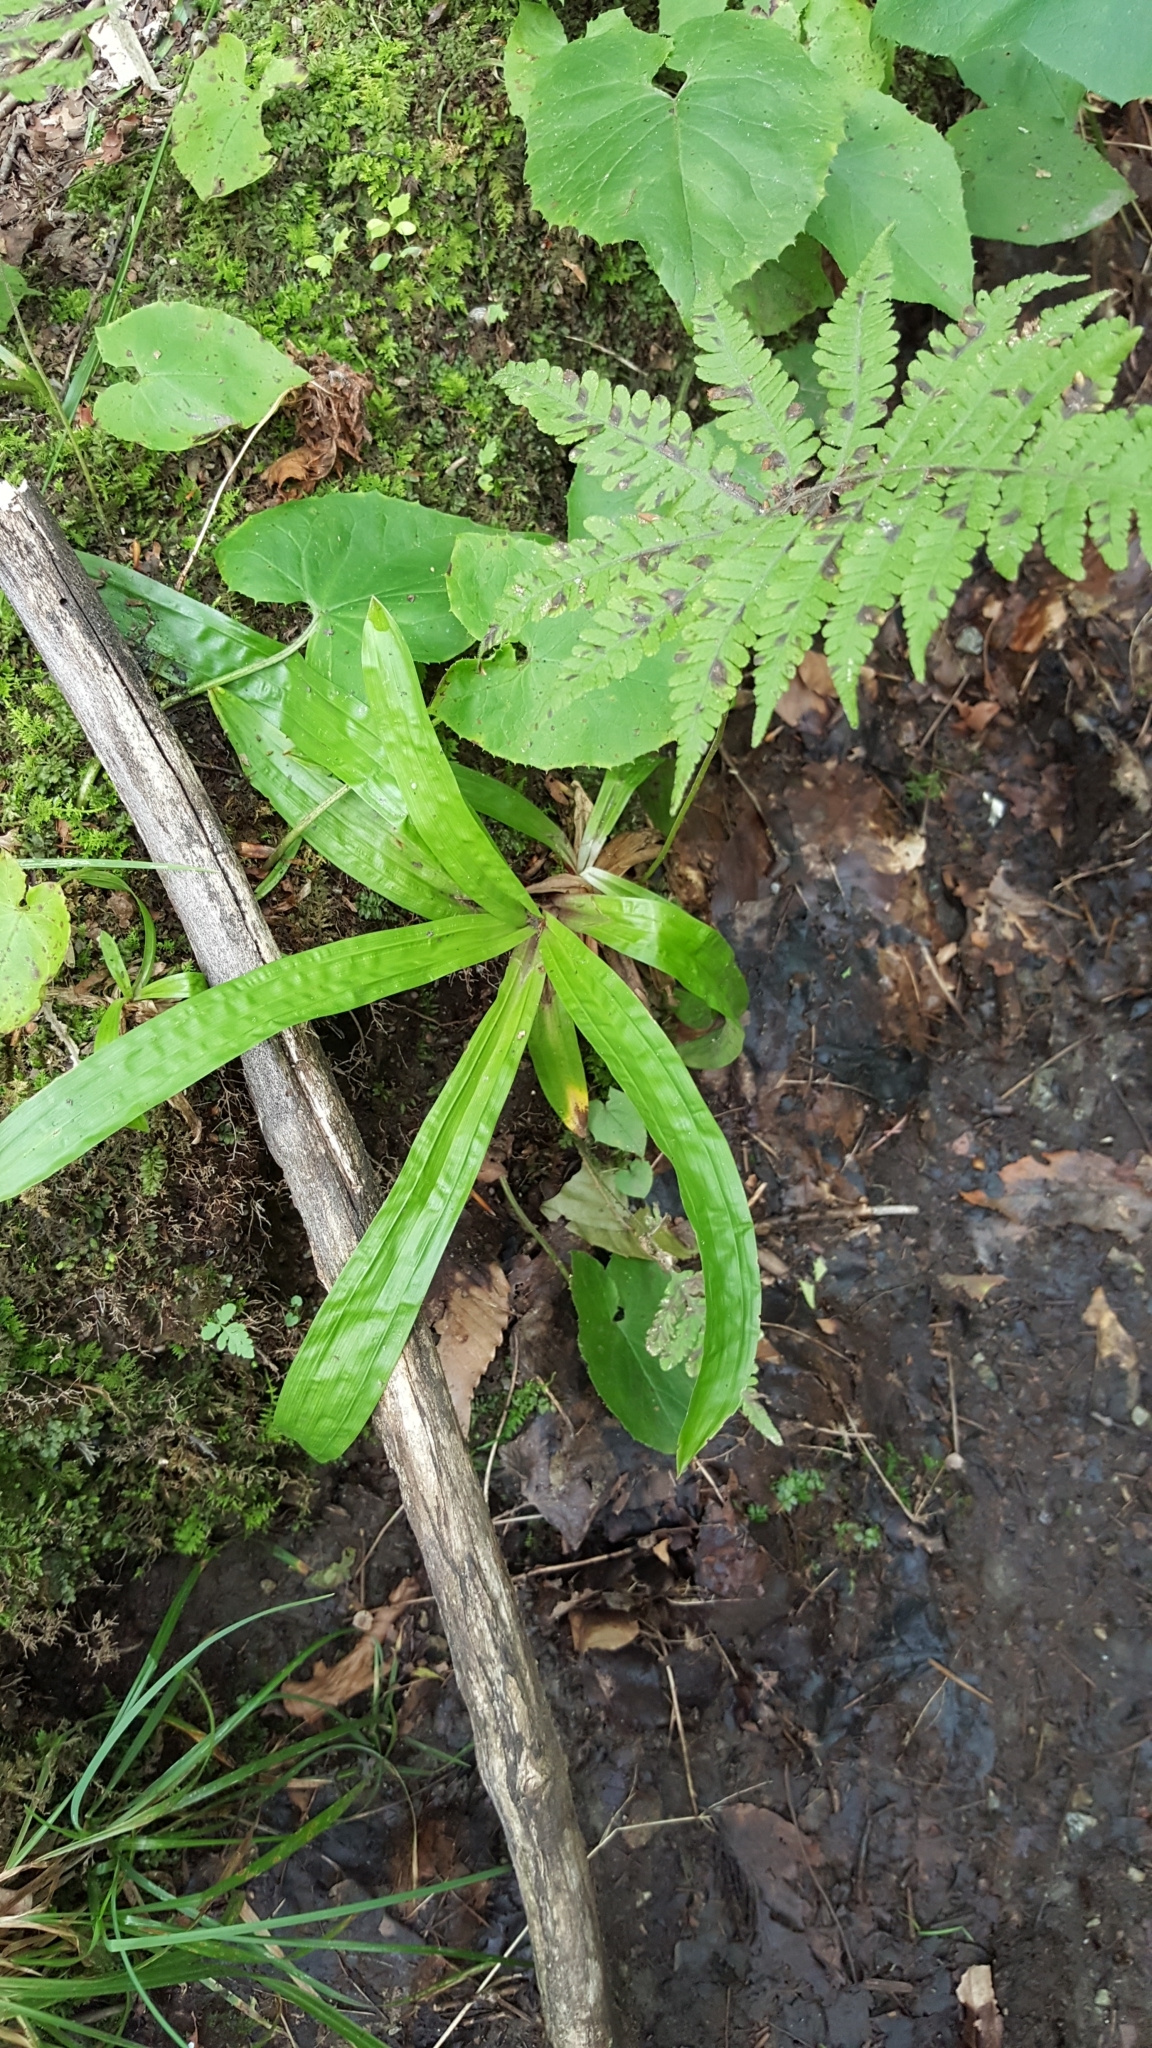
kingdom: Plantae
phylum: Tracheophyta
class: Liliopsida
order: Poales
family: Cyperaceae
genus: Carex
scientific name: Carex plantaginea
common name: Plantain-leaved sedge
